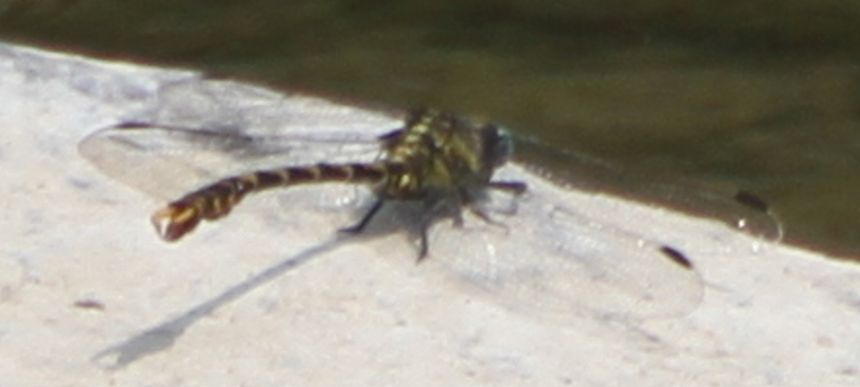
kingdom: Animalia
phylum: Arthropoda
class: Insecta
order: Odonata
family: Gomphidae
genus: Onychogomphus
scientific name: Onychogomphus uncatus
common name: Large pincertail
